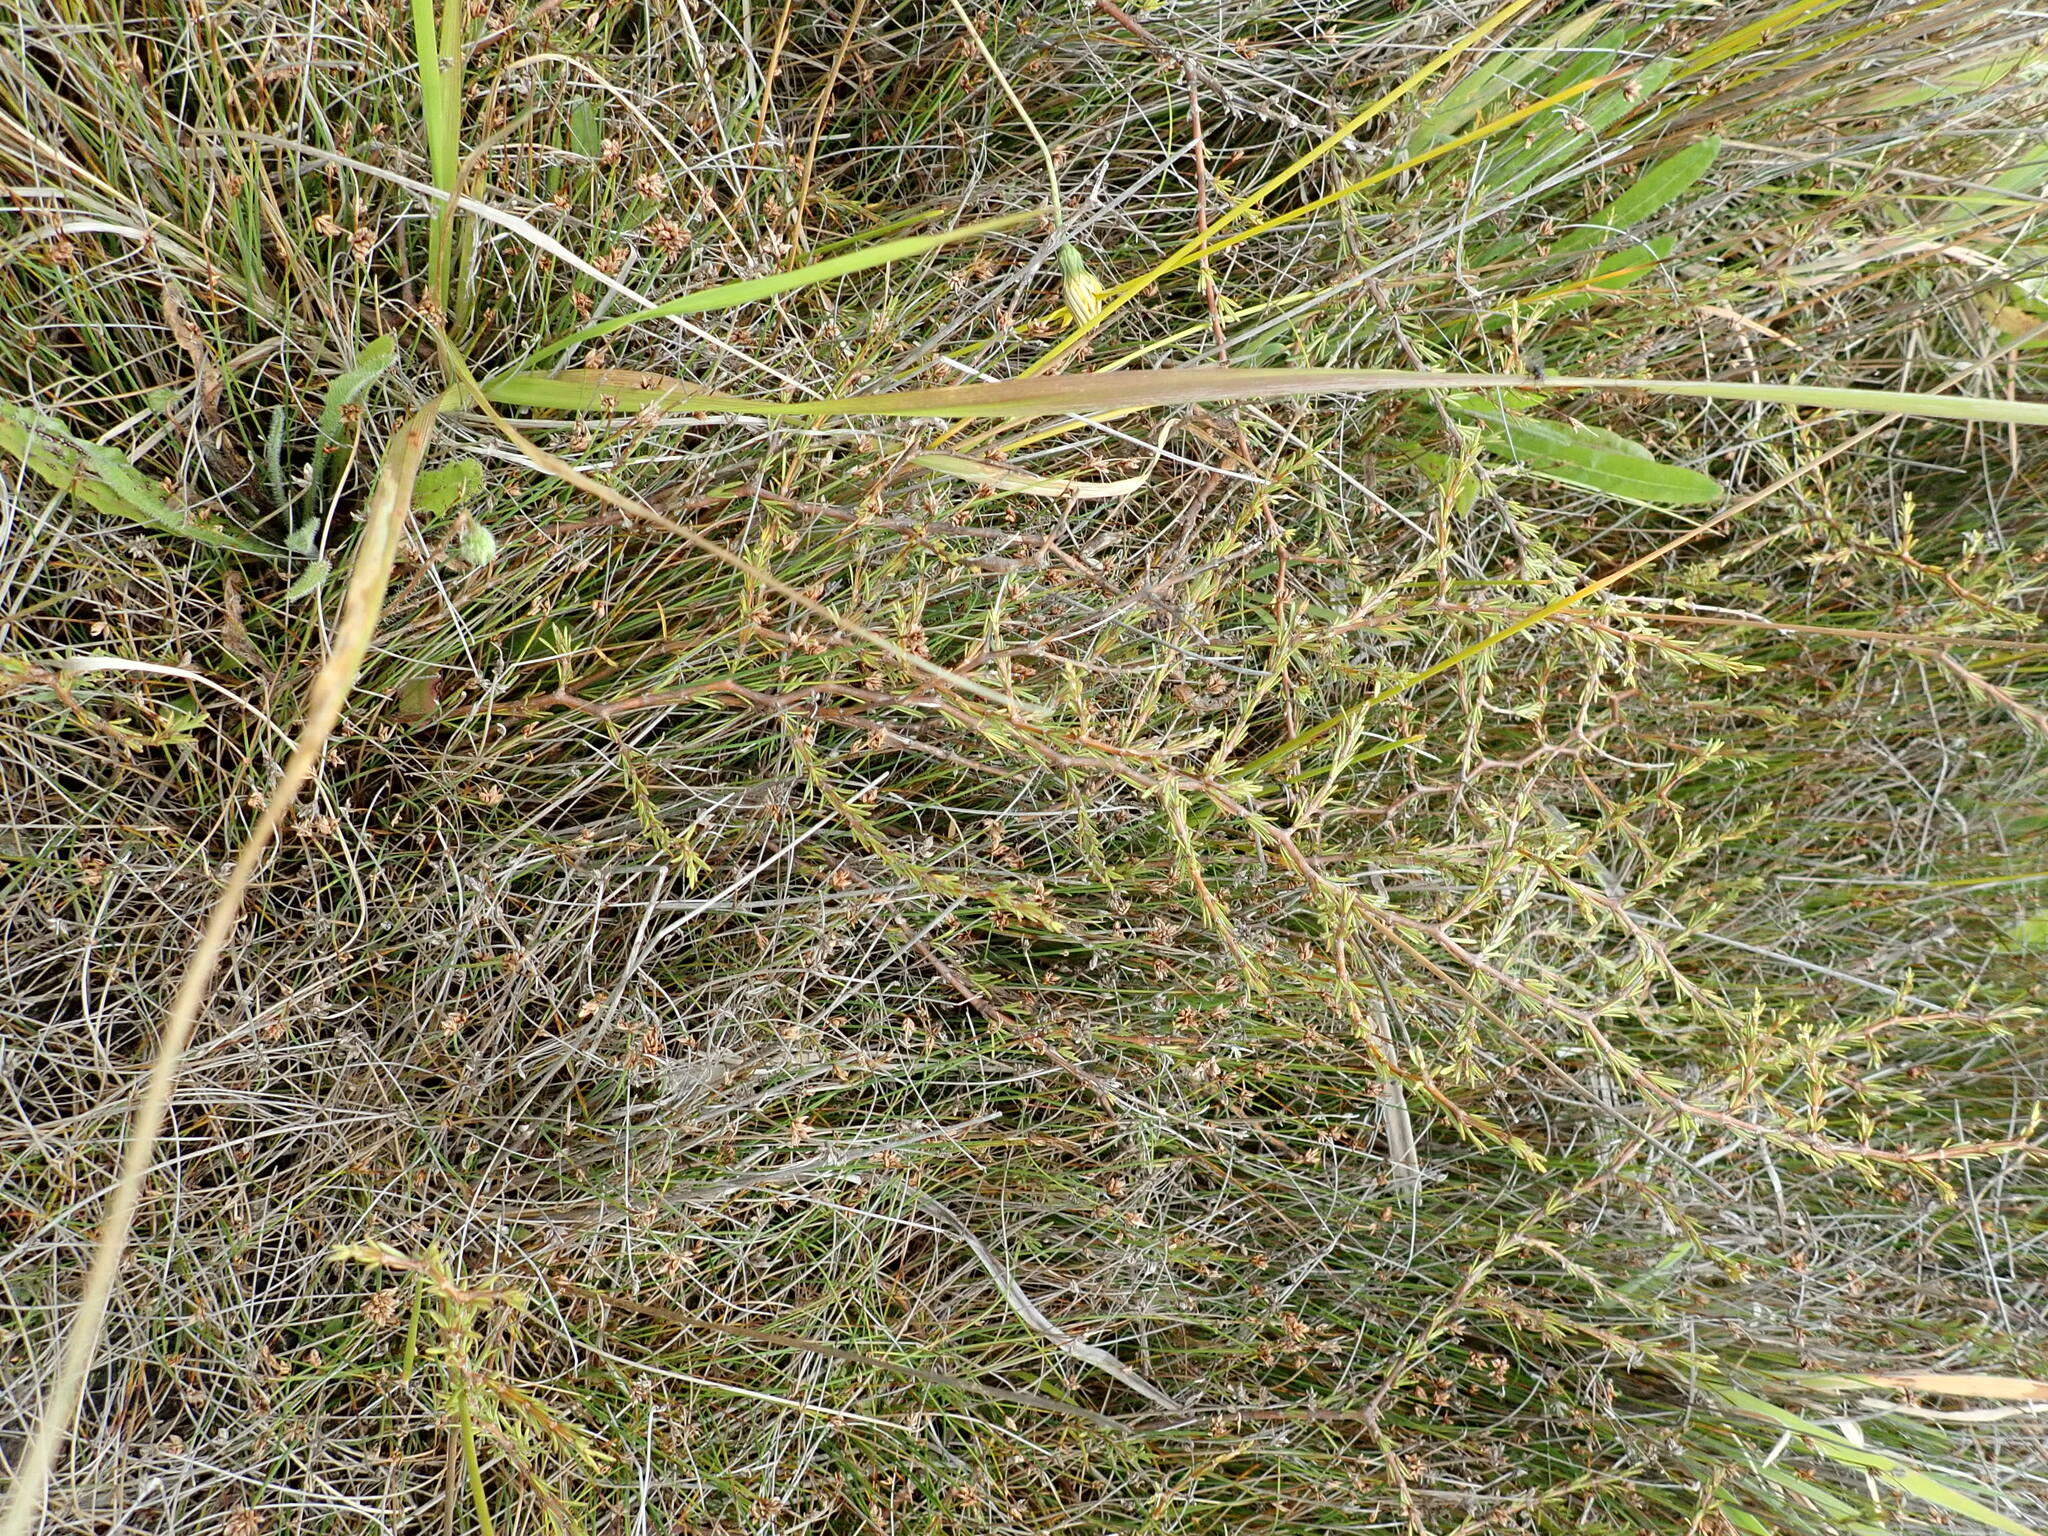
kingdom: Plantae
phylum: Tracheophyta
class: Magnoliopsida
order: Gentianales
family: Rubiaceae
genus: Coprosma
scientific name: Coprosma acerosa
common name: Sand coprosma
